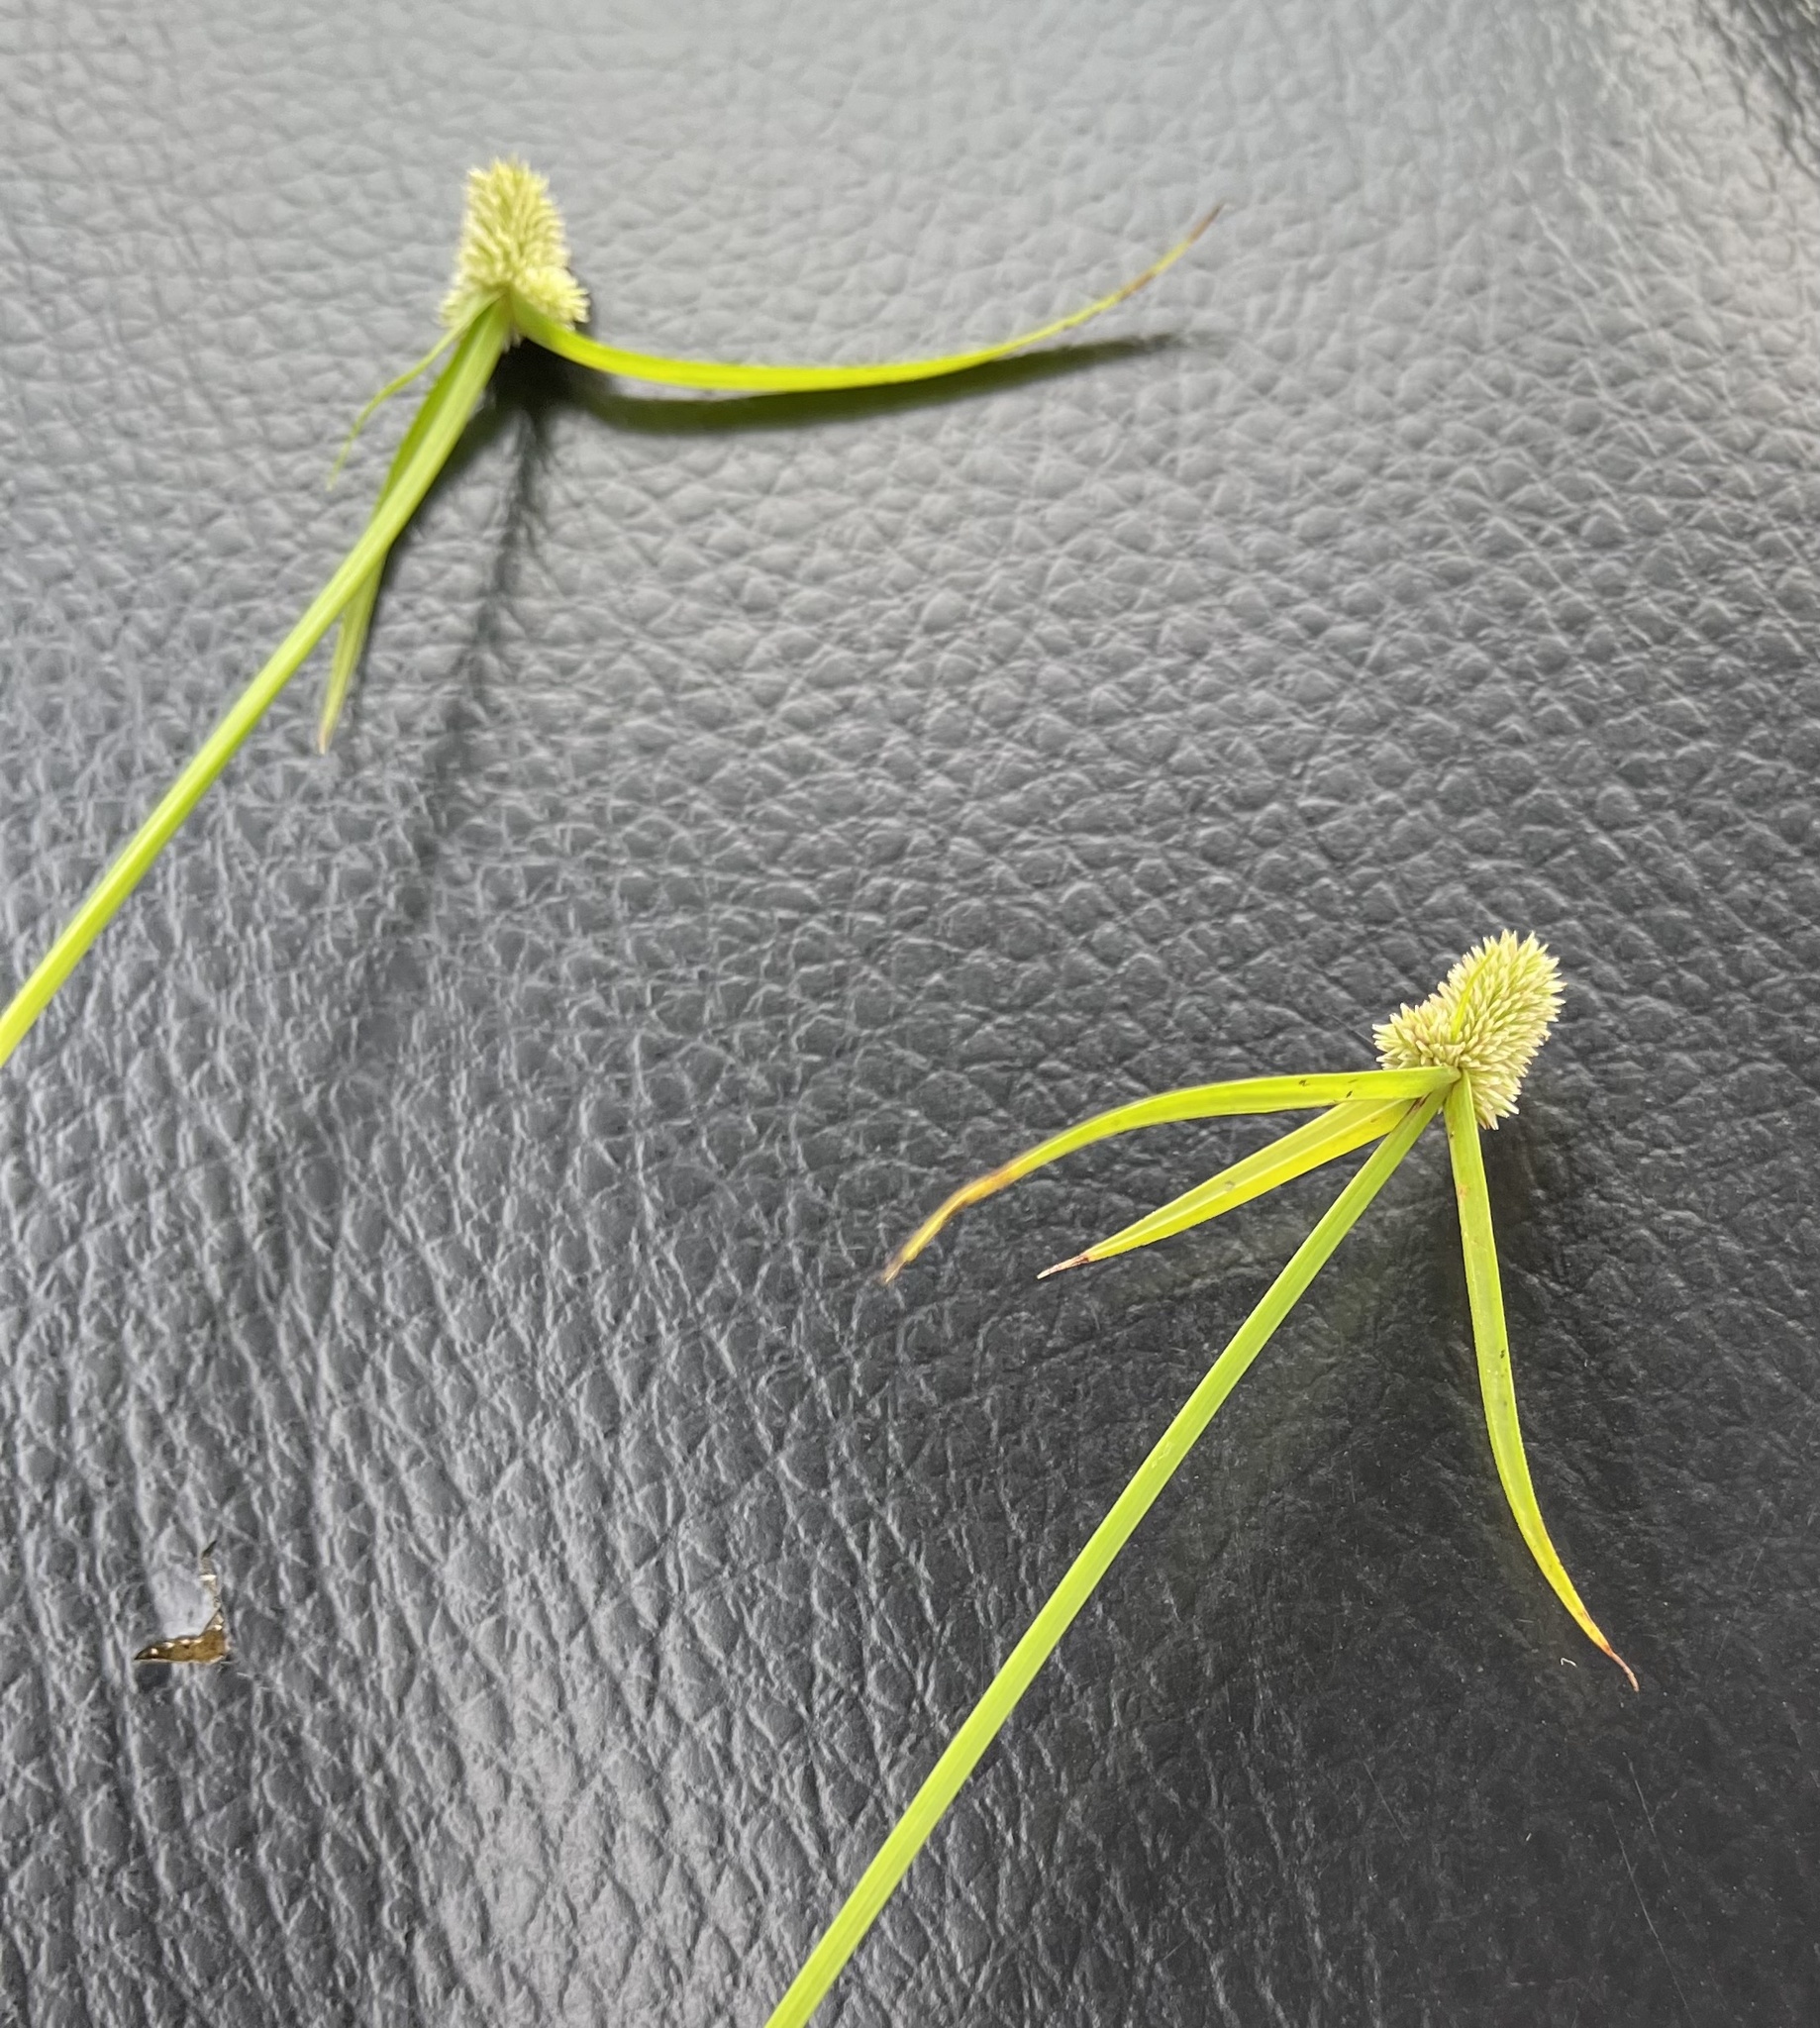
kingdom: Plantae
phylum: Tracheophyta
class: Liliopsida
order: Poales
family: Cyperaceae
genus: Cyperus
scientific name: Cyperus sesquiflorus
